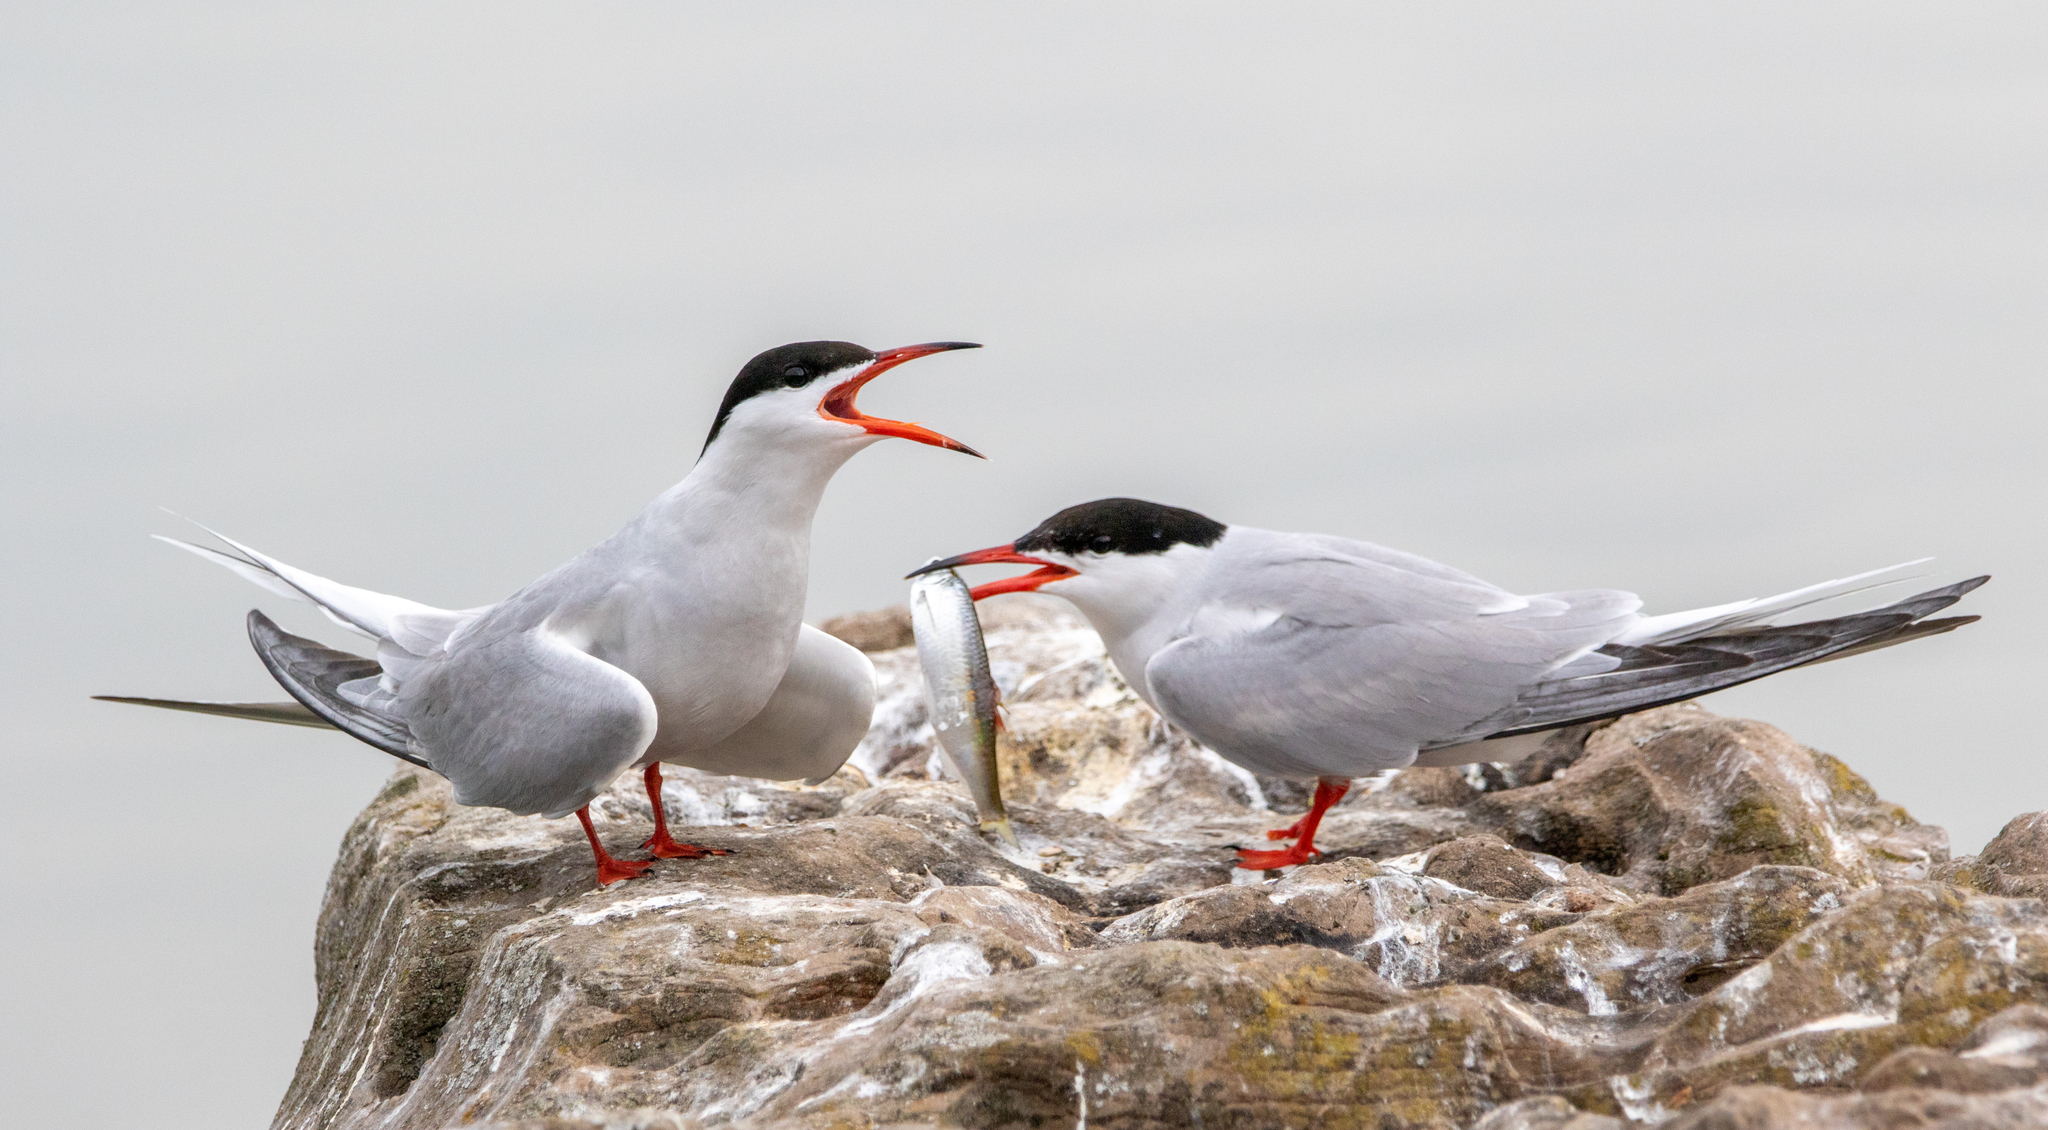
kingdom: Animalia
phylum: Chordata
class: Aves
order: Charadriiformes
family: Laridae
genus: Sterna
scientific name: Sterna hirundo
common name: Common tern
